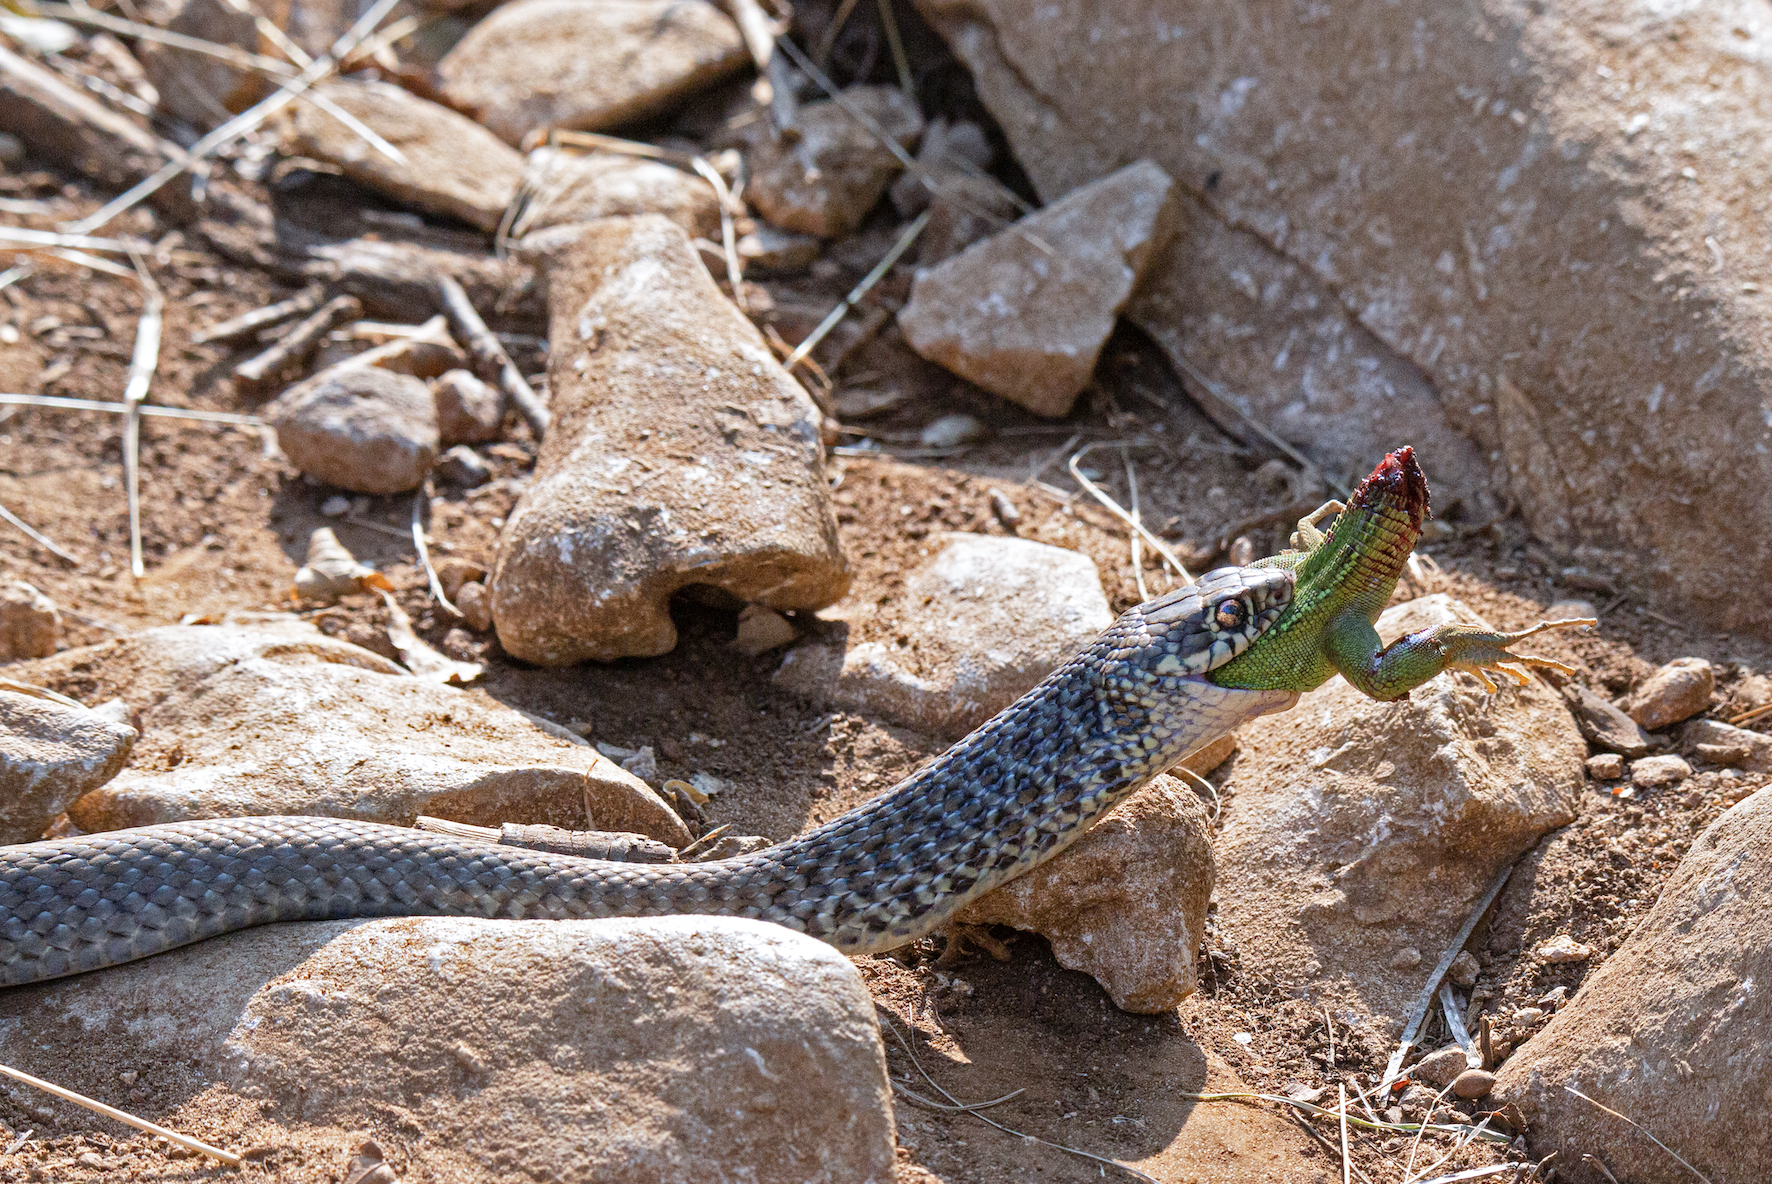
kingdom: Animalia
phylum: Chordata
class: Squamata
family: Colubridae
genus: Hierophis
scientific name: Hierophis viridiflavus
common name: Green whip snake
